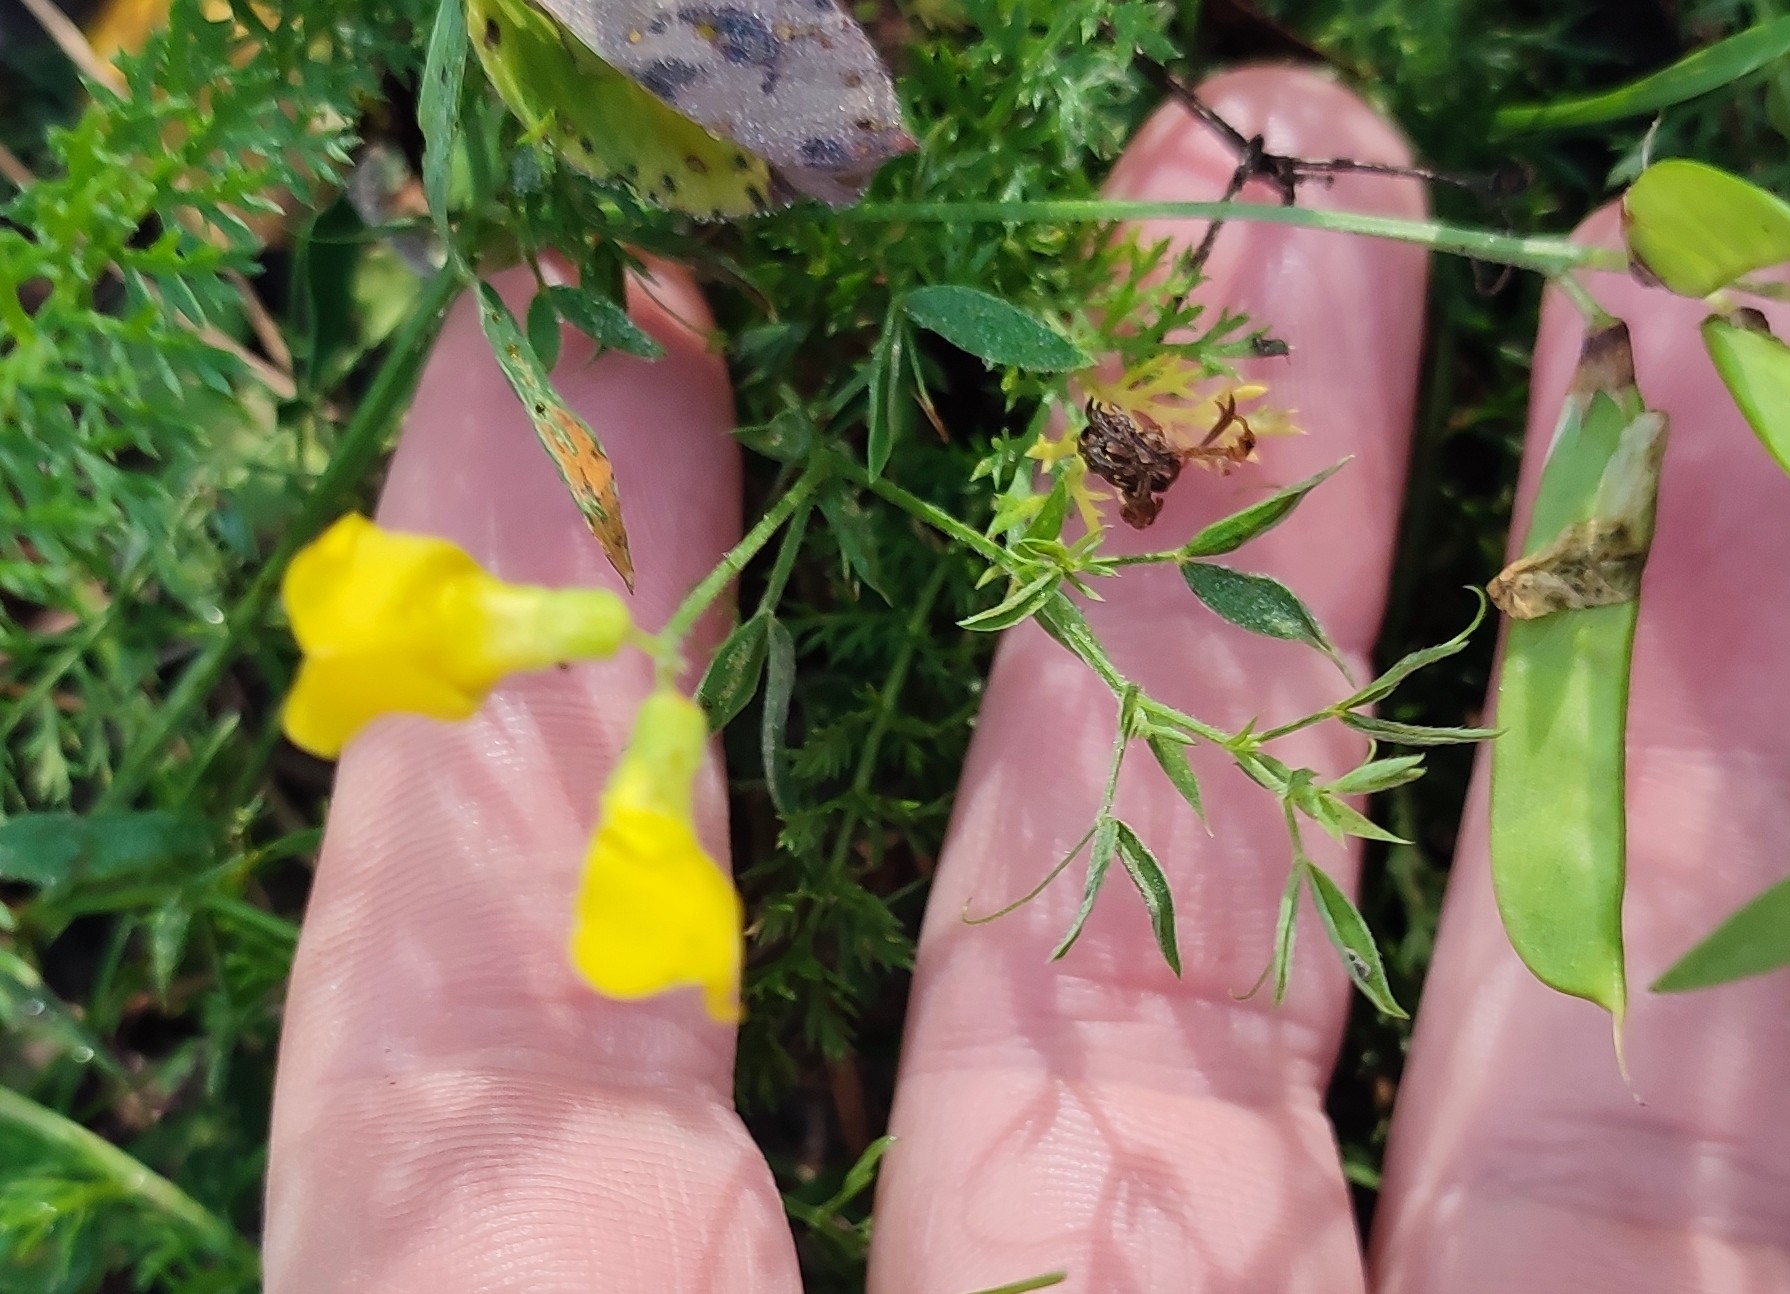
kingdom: Plantae
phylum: Tracheophyta
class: Magnoliopsida
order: Fabales
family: Fabaceae
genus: Lathyrus
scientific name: Lathyrus pratensis
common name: Meadow vetchling
